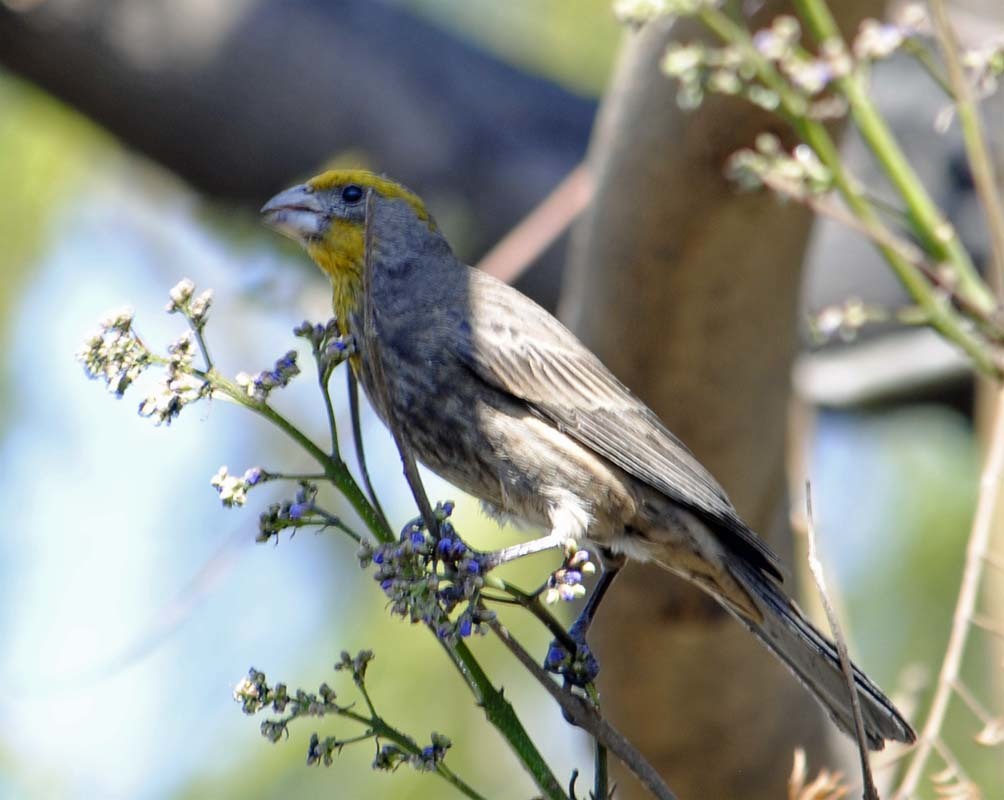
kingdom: Animalia
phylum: Chordata
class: Aves
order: Passeriformes
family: Fringillidae
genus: Haemorhous
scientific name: Haemorhous mexicanus
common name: House finch
